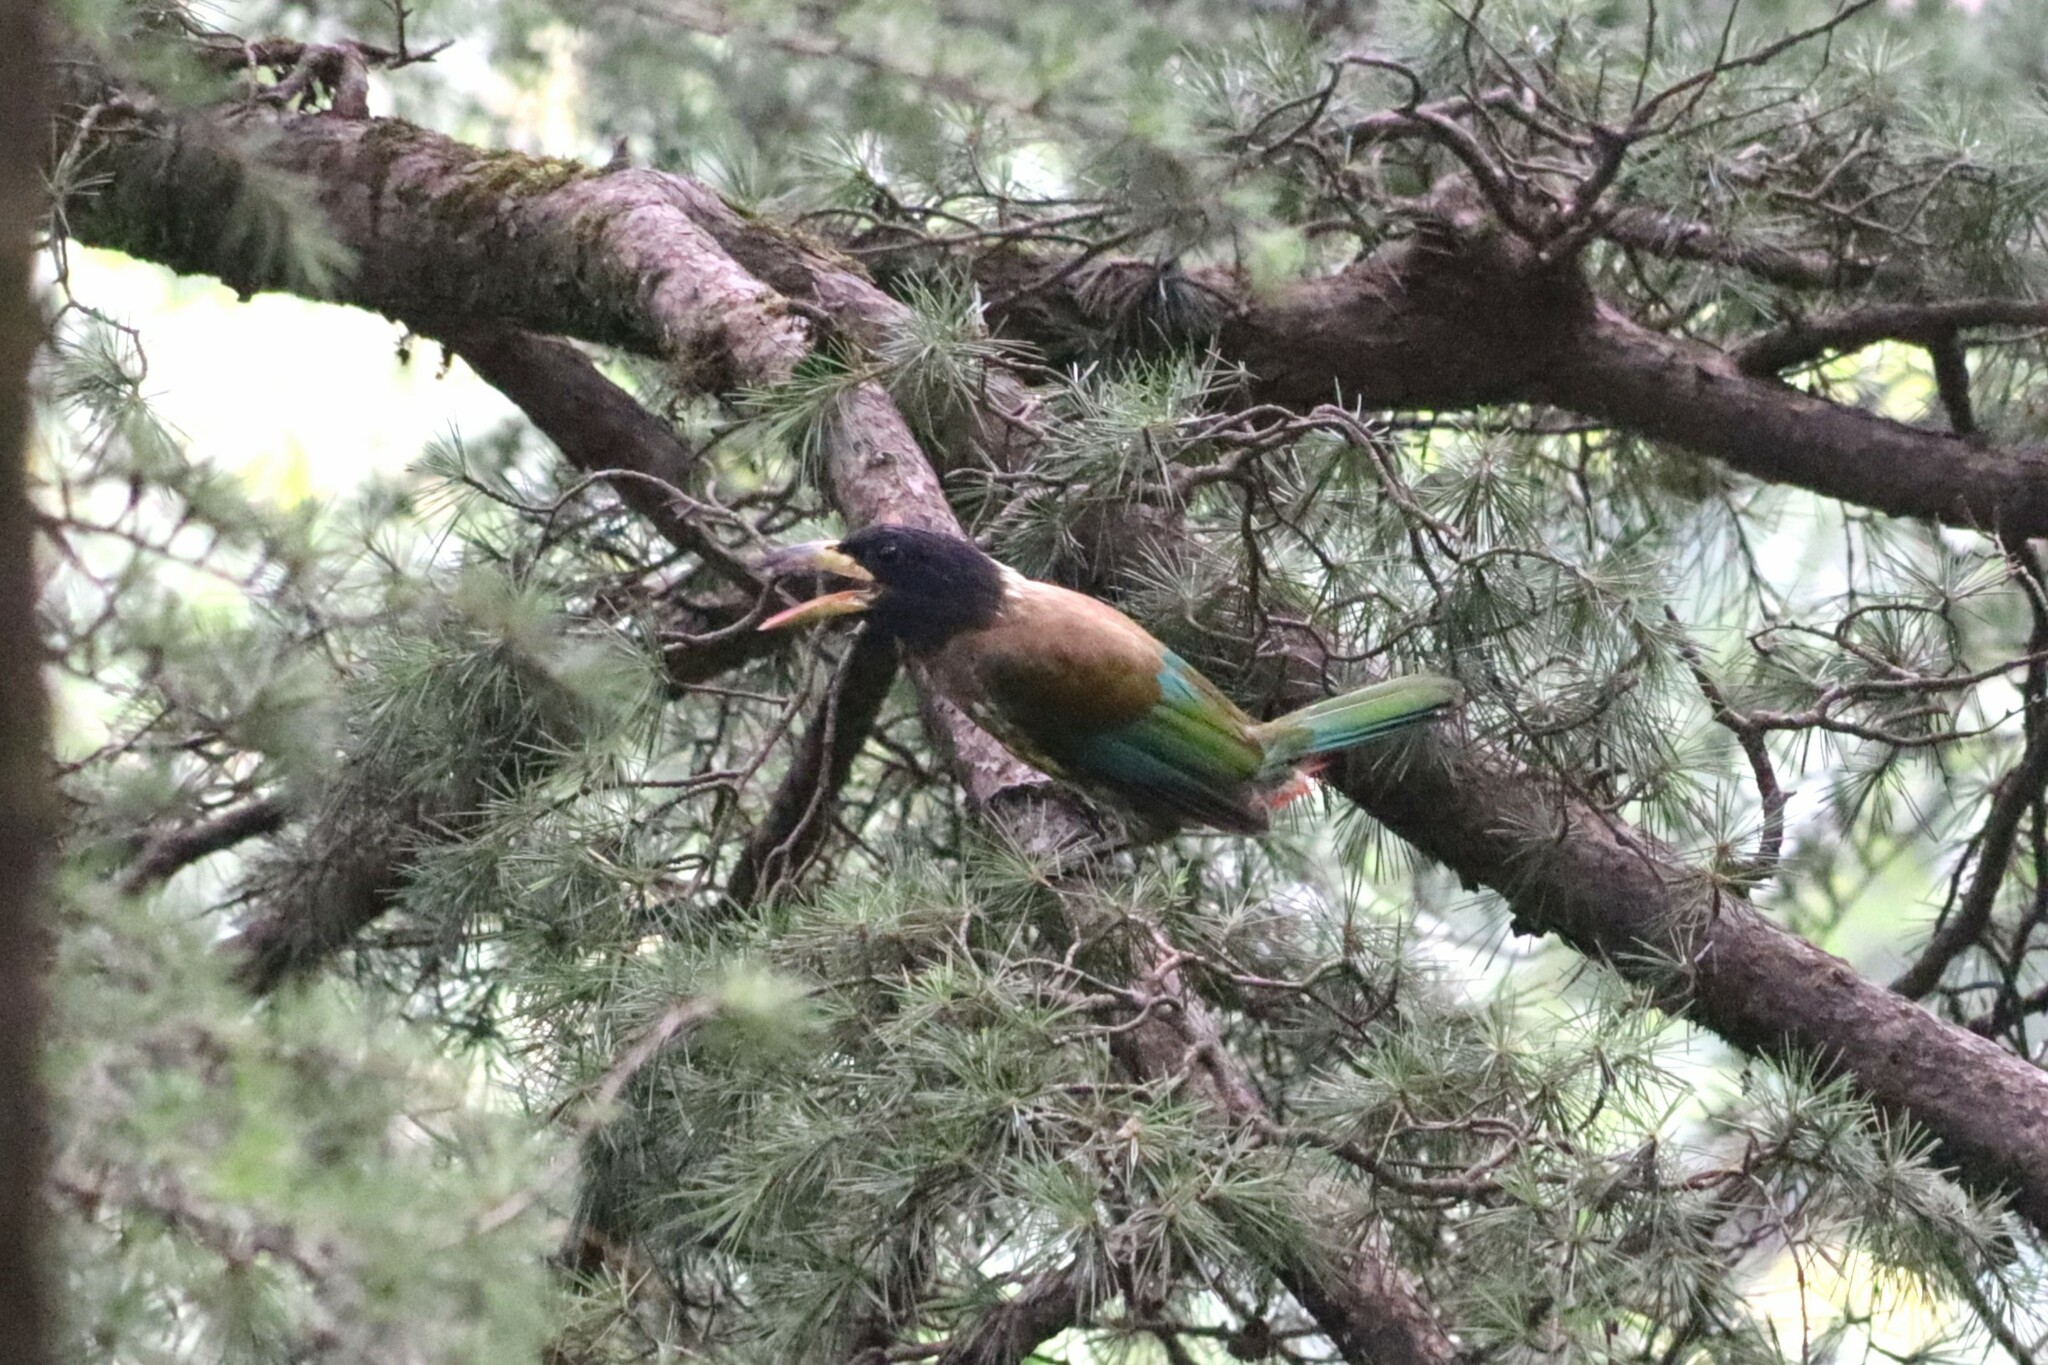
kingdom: Animalia
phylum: Chordata
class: Aves
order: Piciformes
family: Megalaimidae
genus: Psilopogon
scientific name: Psilopogon virens
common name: Great barbet
